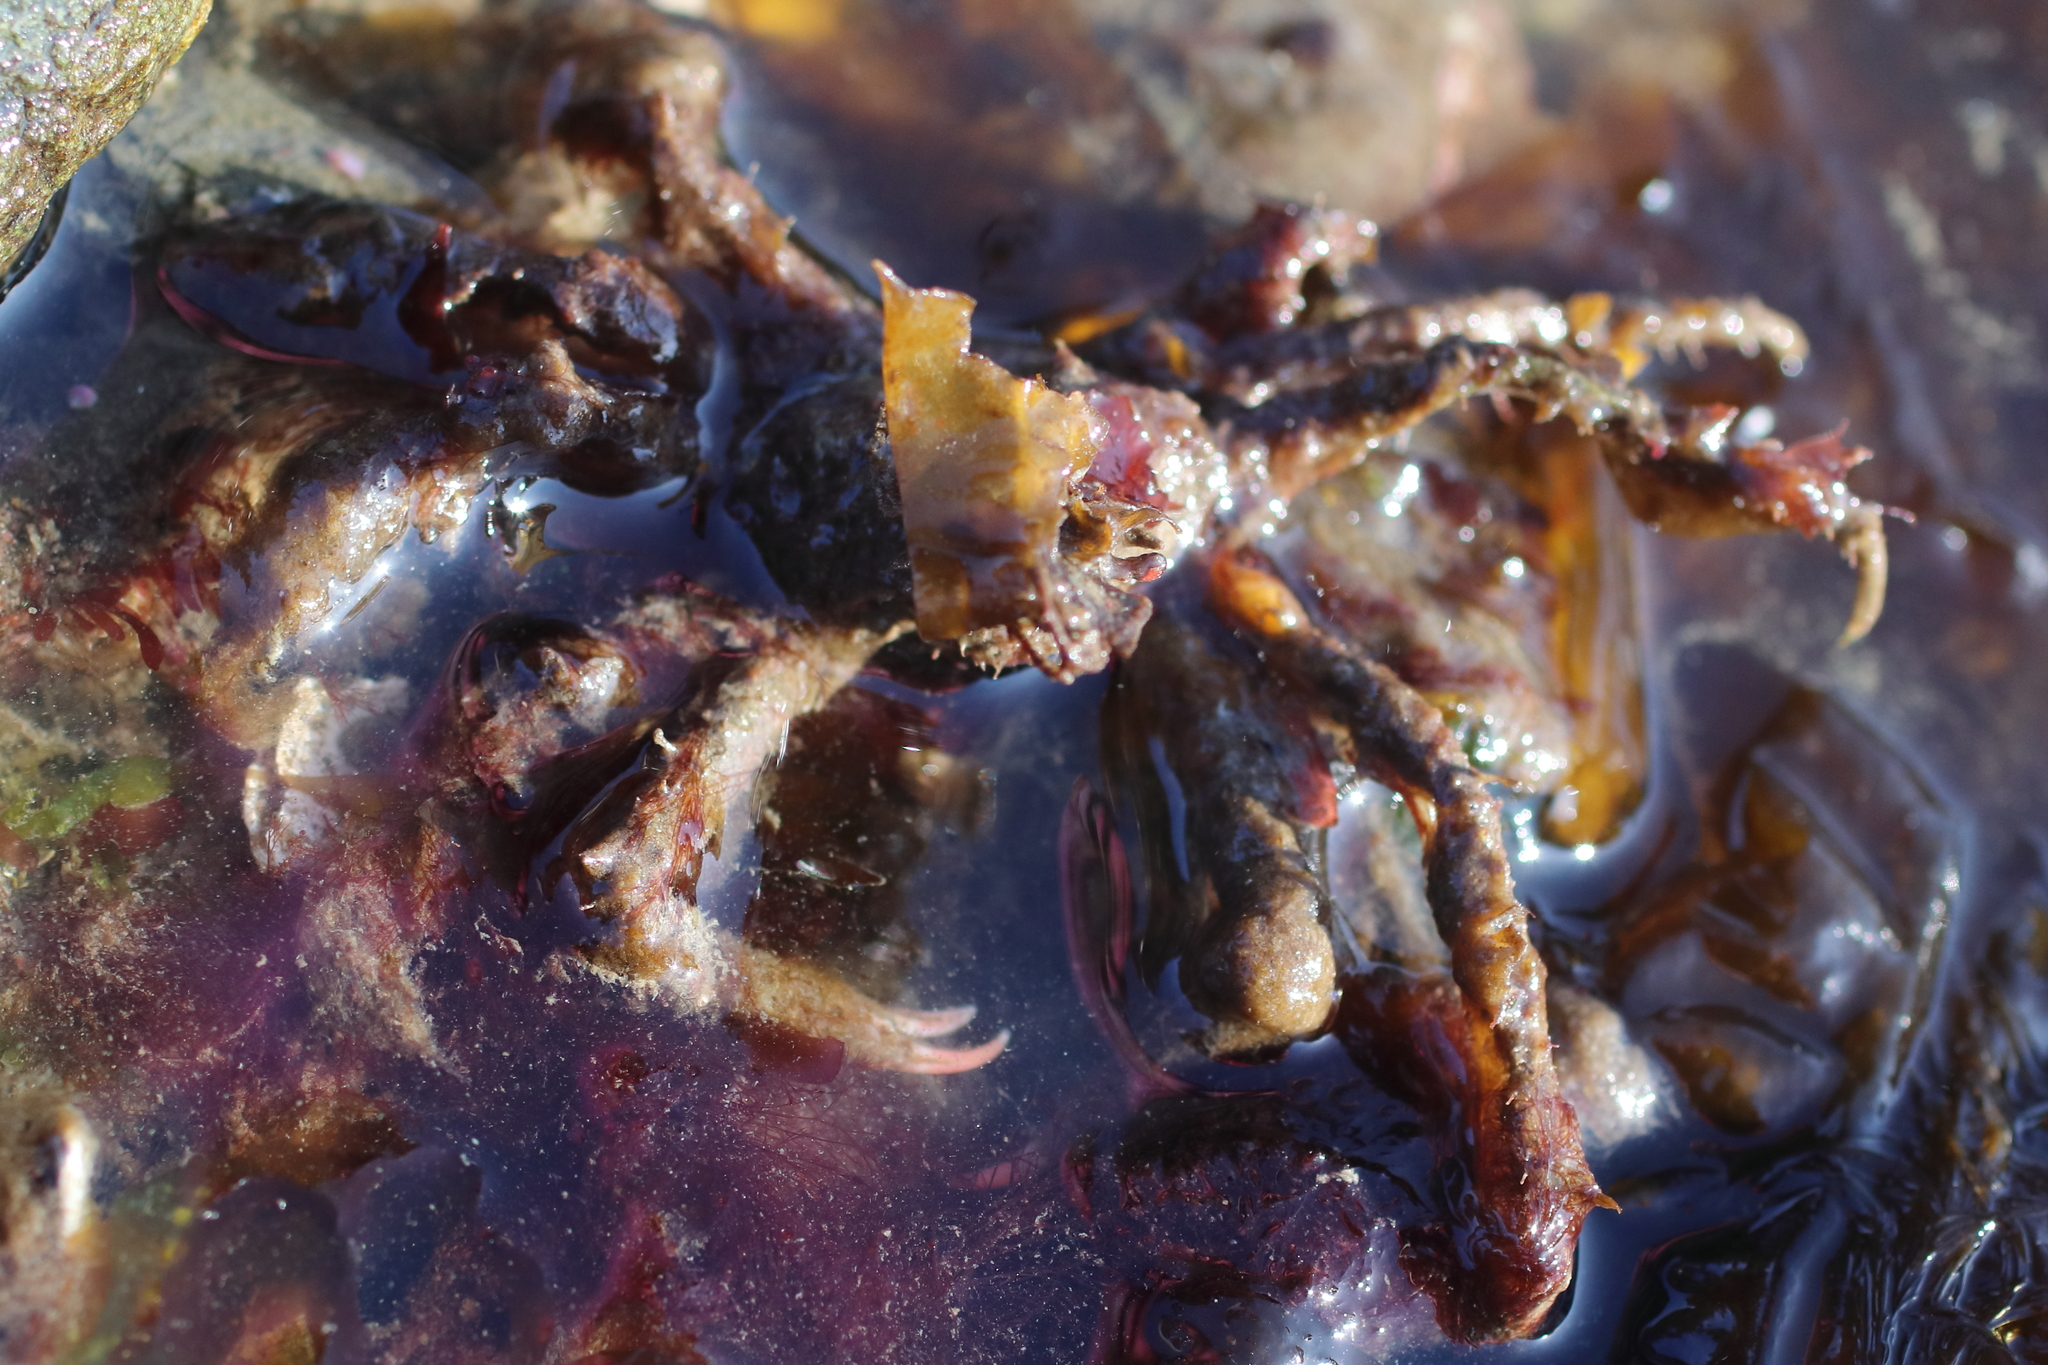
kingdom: Animalia
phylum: Arthropoda
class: Malacostraca
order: Decapoda
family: Oregoniidae
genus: Oregonia
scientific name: Oregonia gracilis
